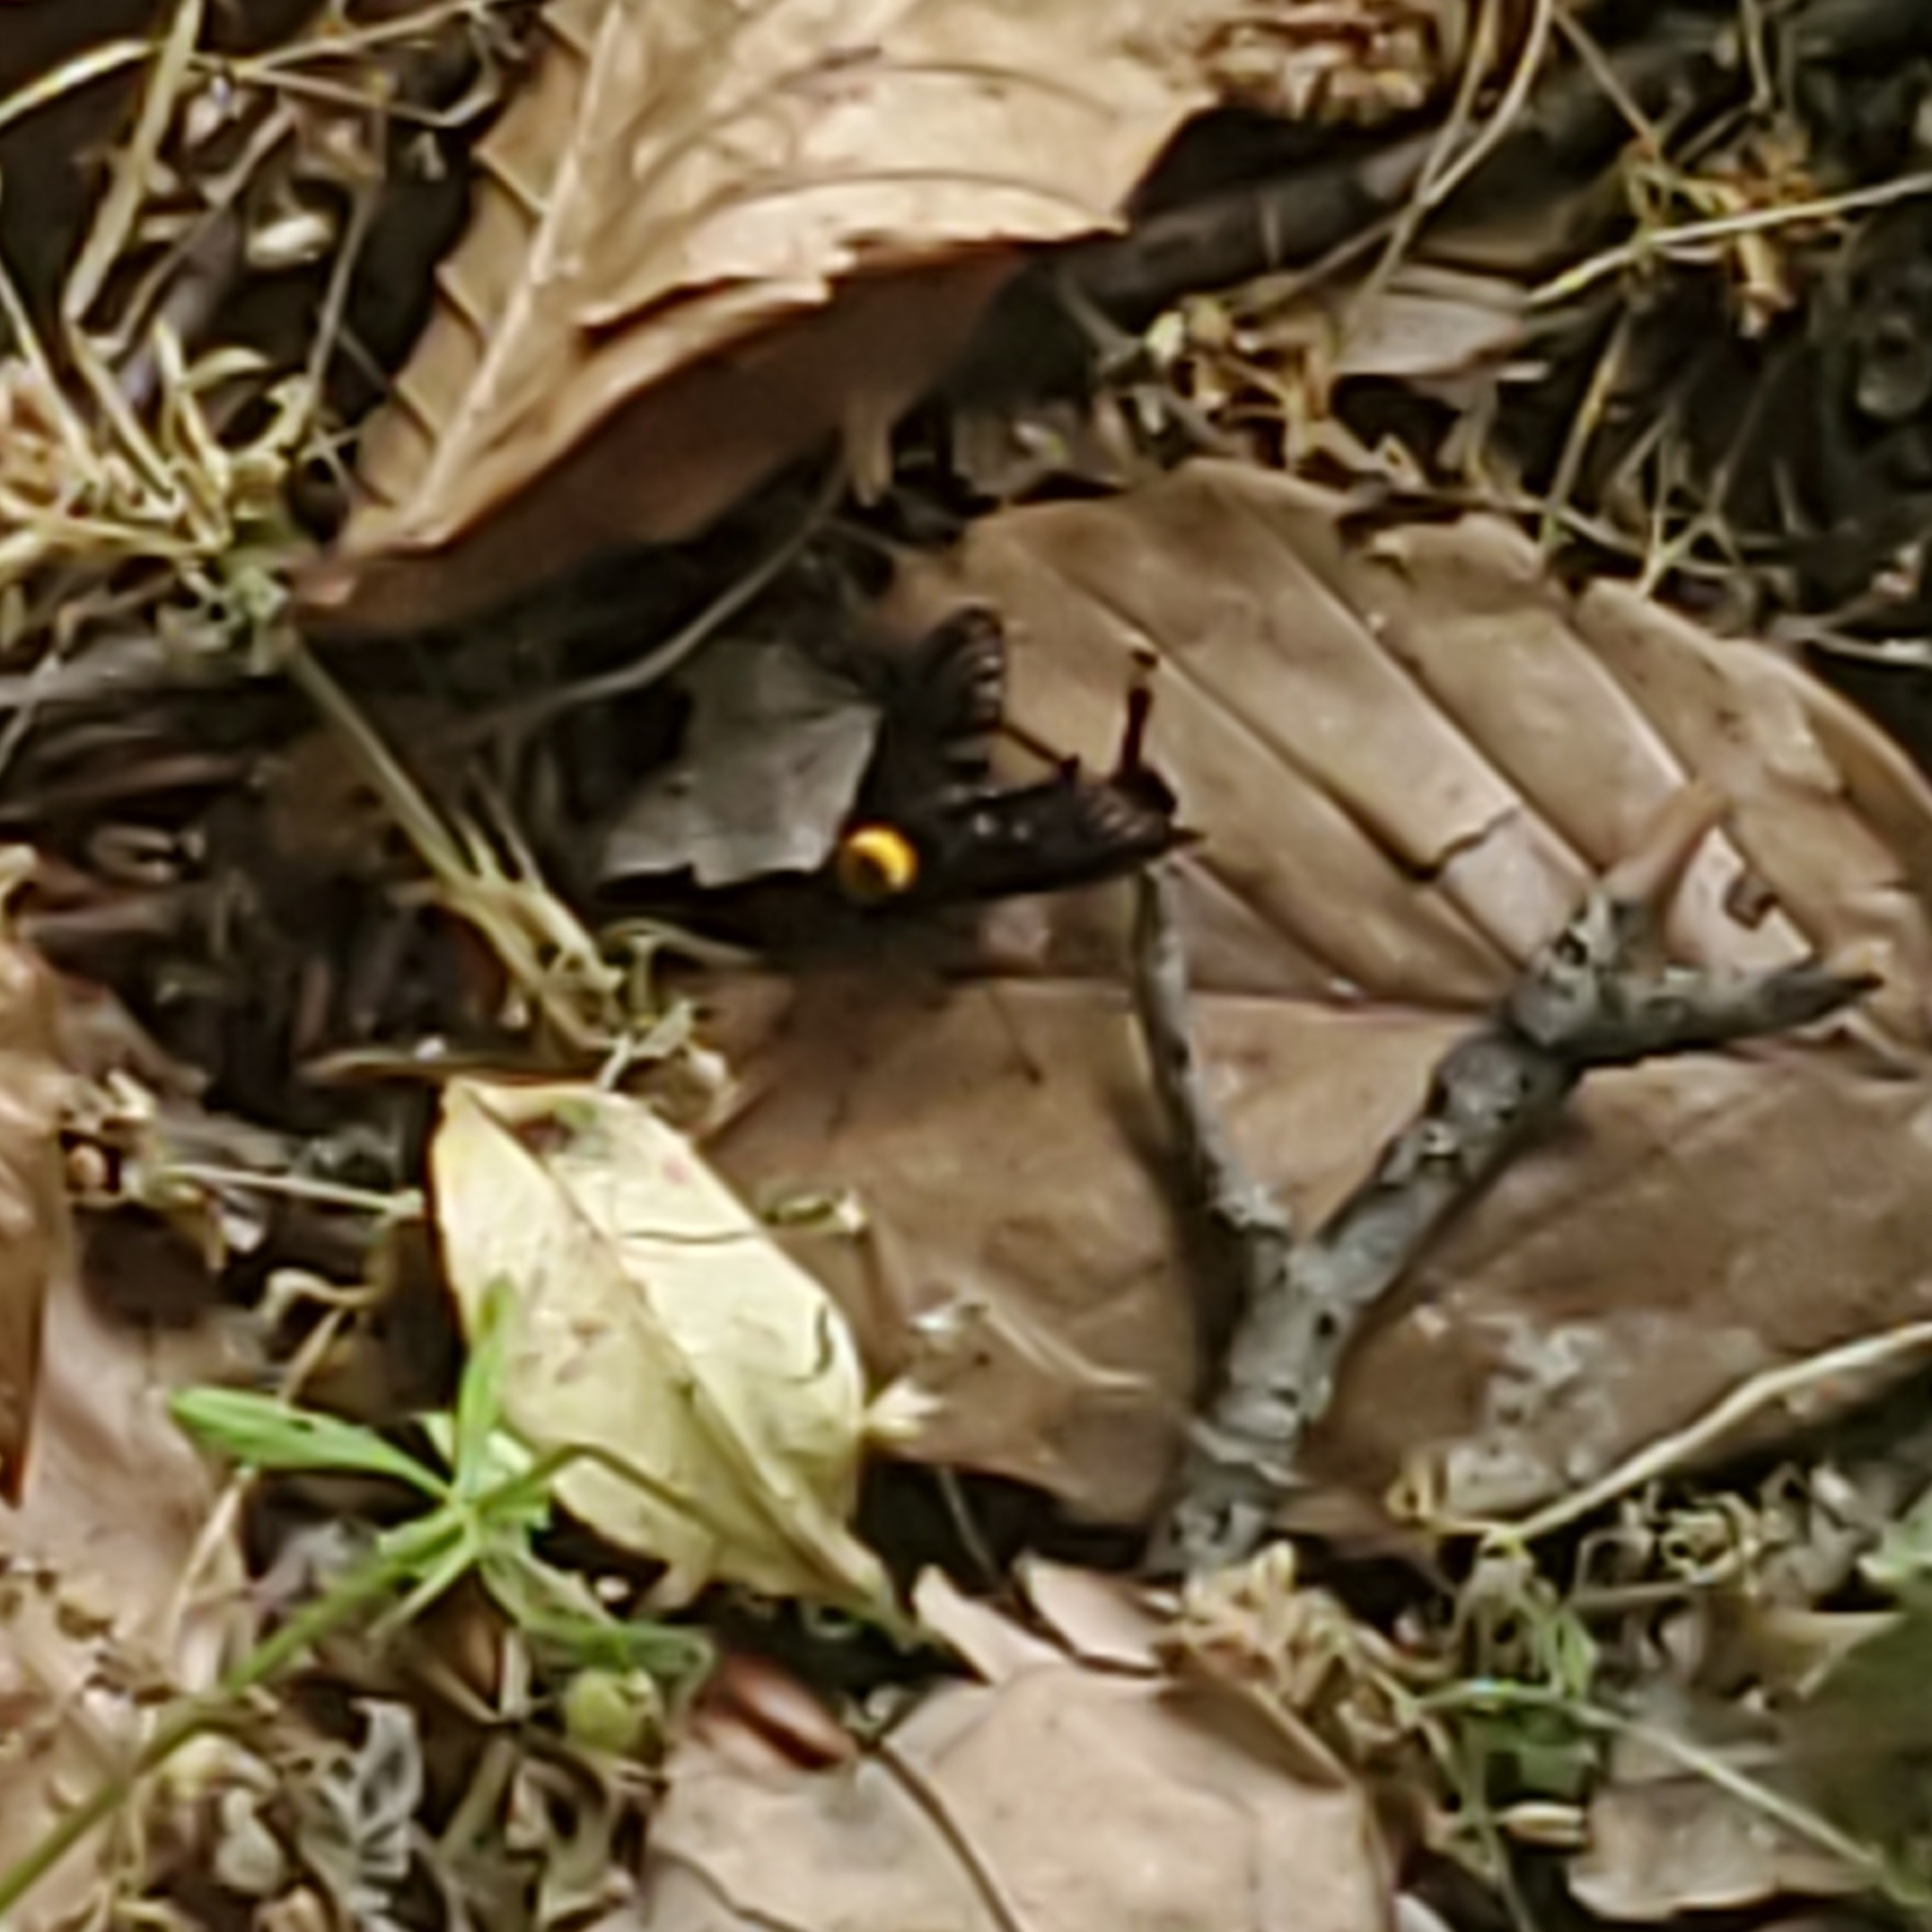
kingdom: Animalia
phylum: Arthropoda
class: Insecta
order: Diptera
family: Rhagionidae
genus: Chrysopilus
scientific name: Chrysopilus thoracicus
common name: Golden-backed snipe fly
